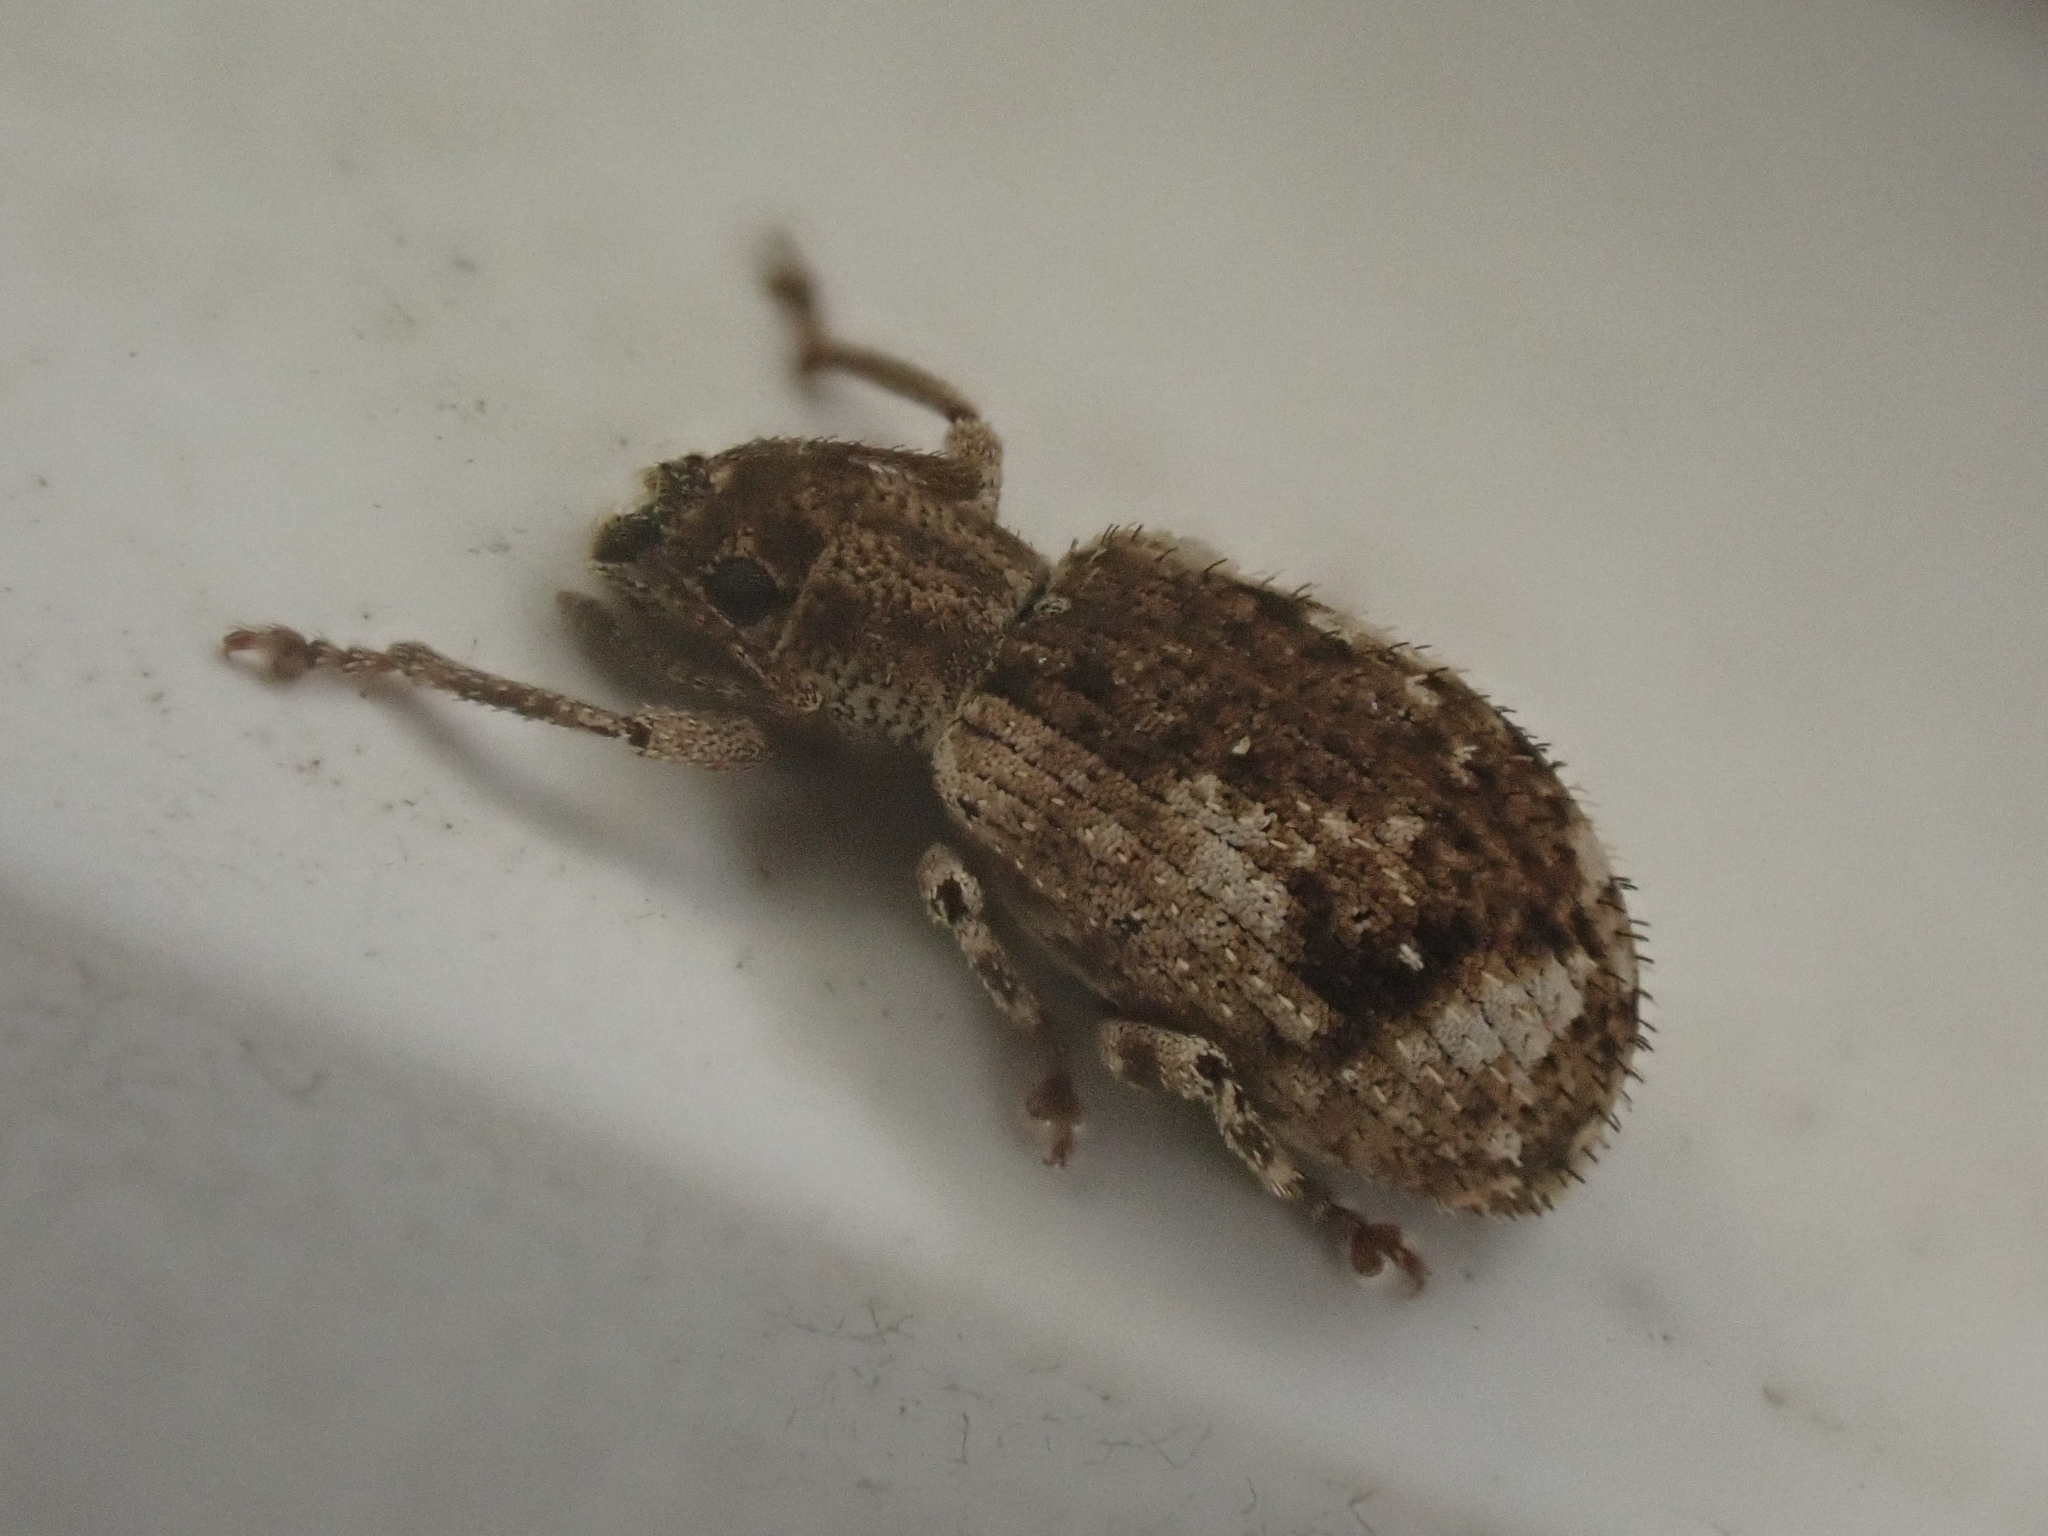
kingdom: Animalia
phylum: Arthropoda
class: Insecta
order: Coleoptera
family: Curculionidae
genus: Pseudoedophrys
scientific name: Pseudoedophrys hilleri
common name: Weevil
